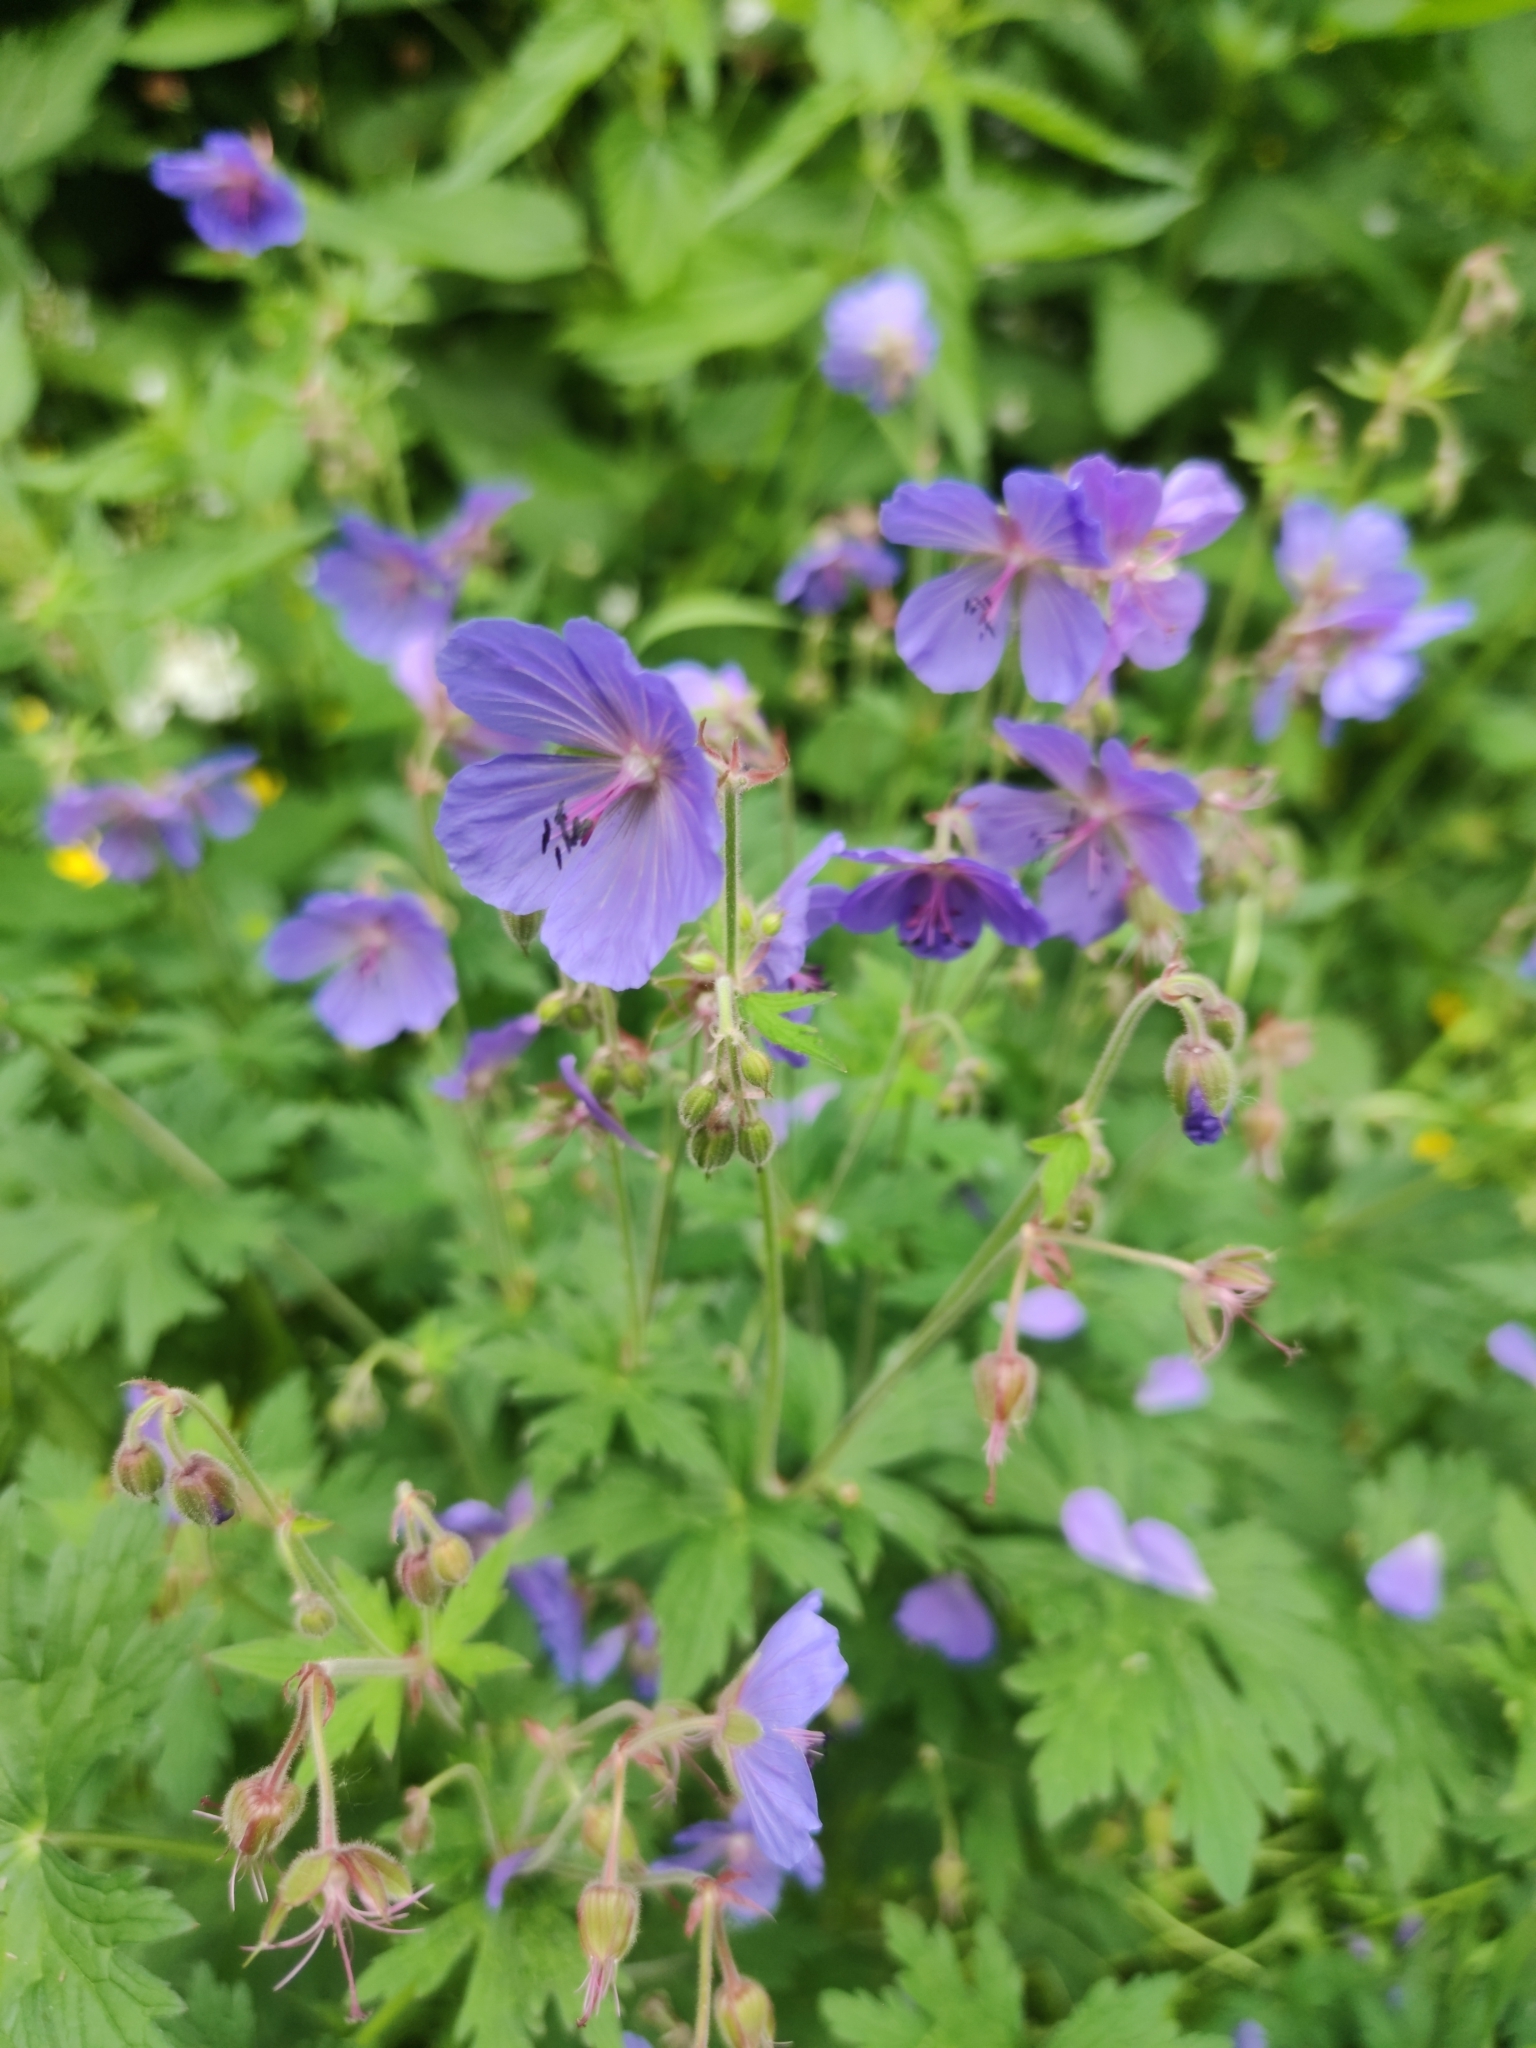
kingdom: Plantae
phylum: Tracheophyta
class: Magnoliopsida
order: Geraniales
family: Geraniaceae
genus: Geranium
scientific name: Geranium pratense
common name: Meadow crane's-bill
